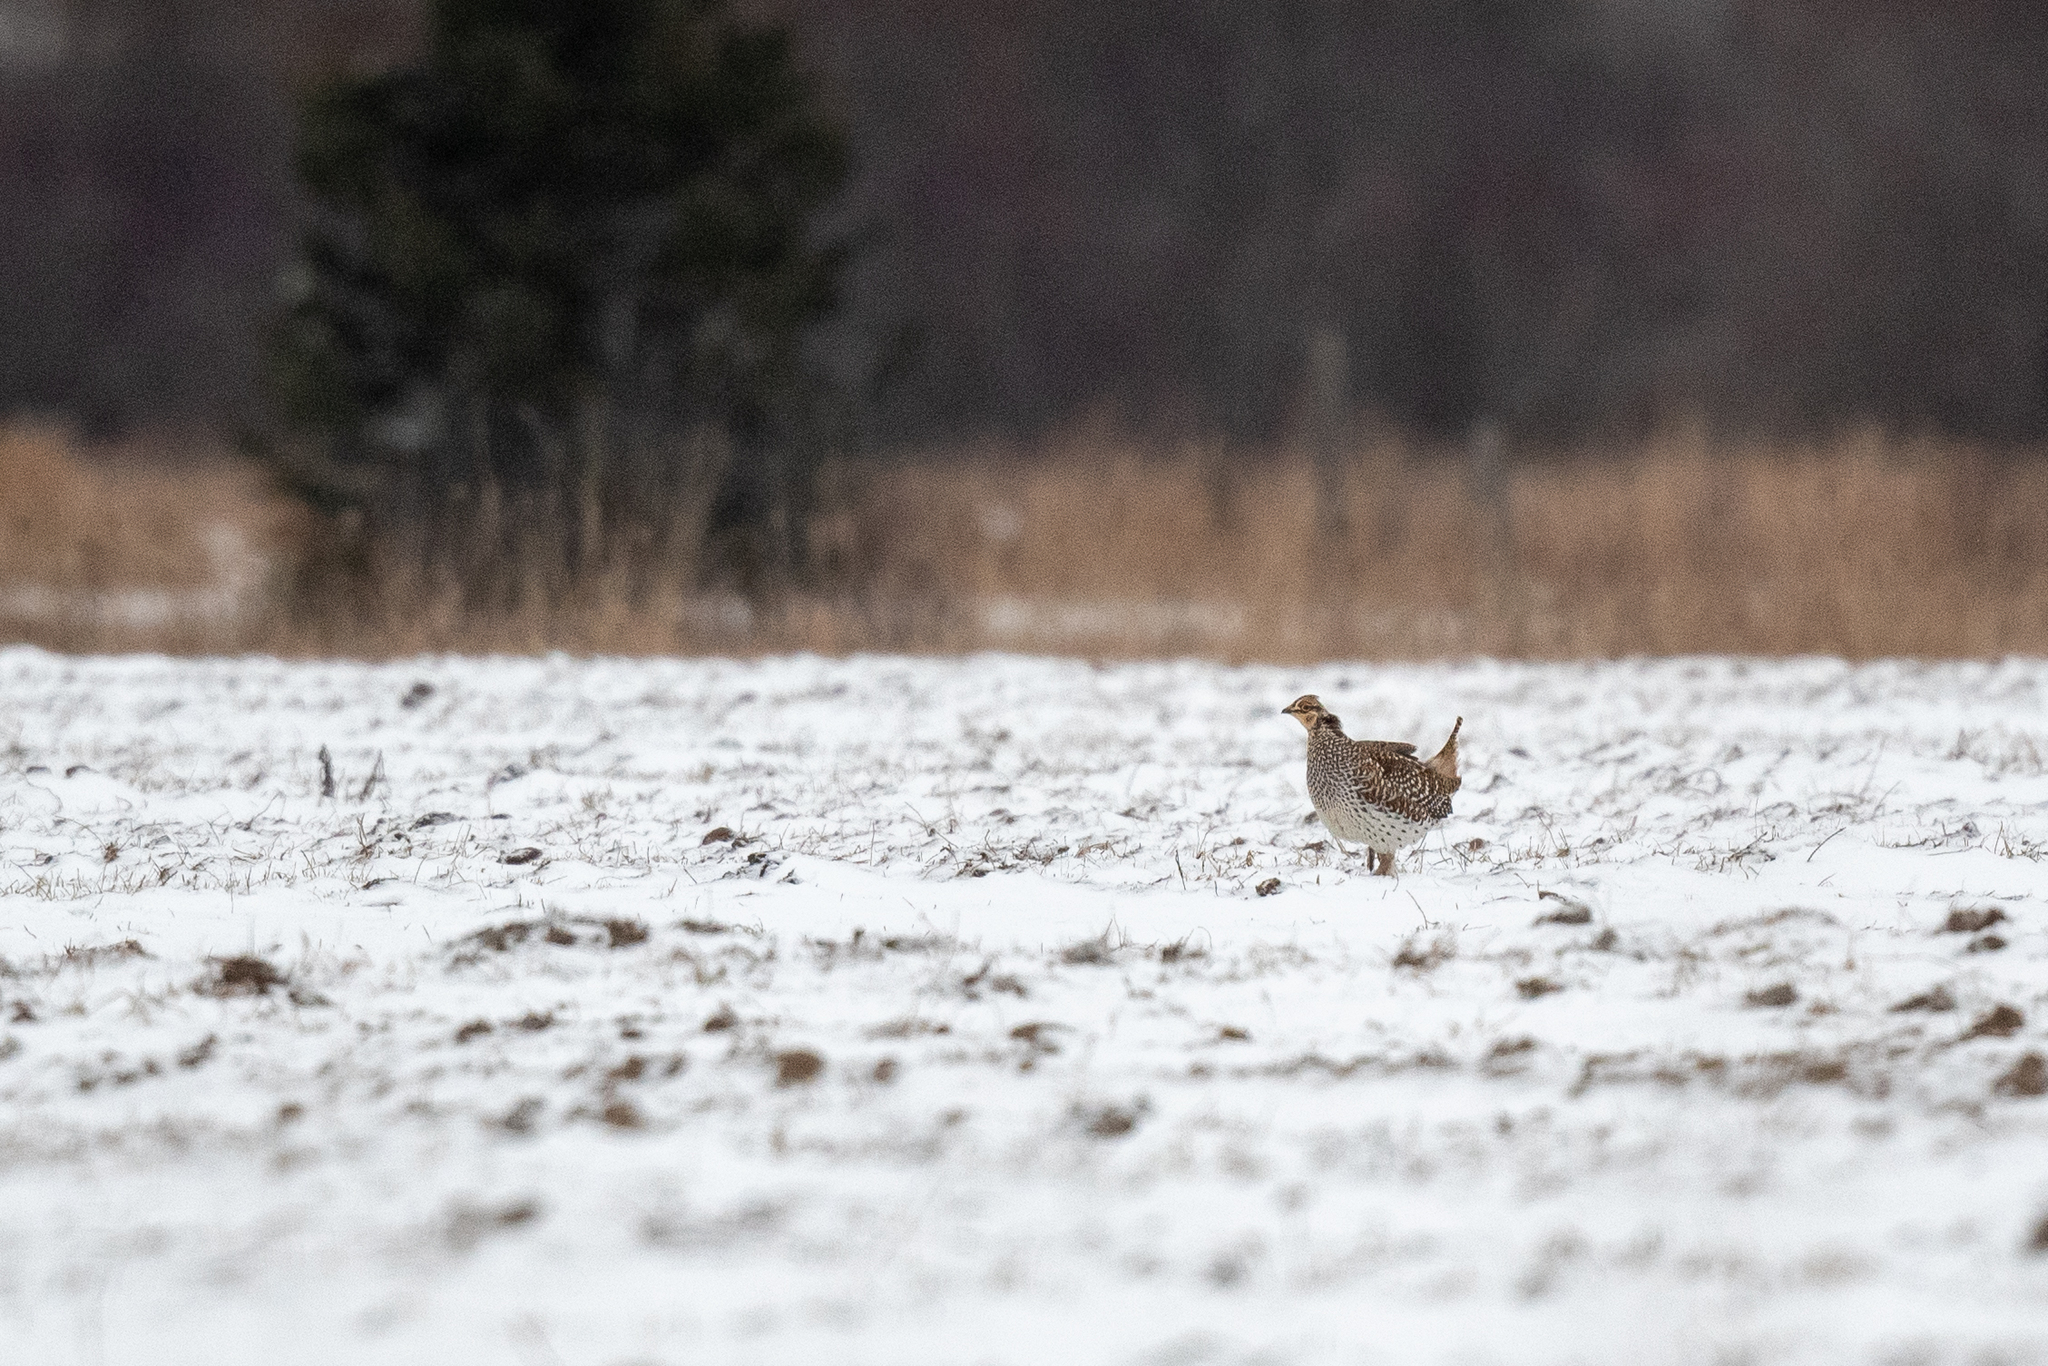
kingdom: Animalia
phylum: Chordata
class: Aves
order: Galliformes
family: Phasianidae
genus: Tympanuchus
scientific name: Tympanuchus phasianellus
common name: Sharp-tailed grouse
